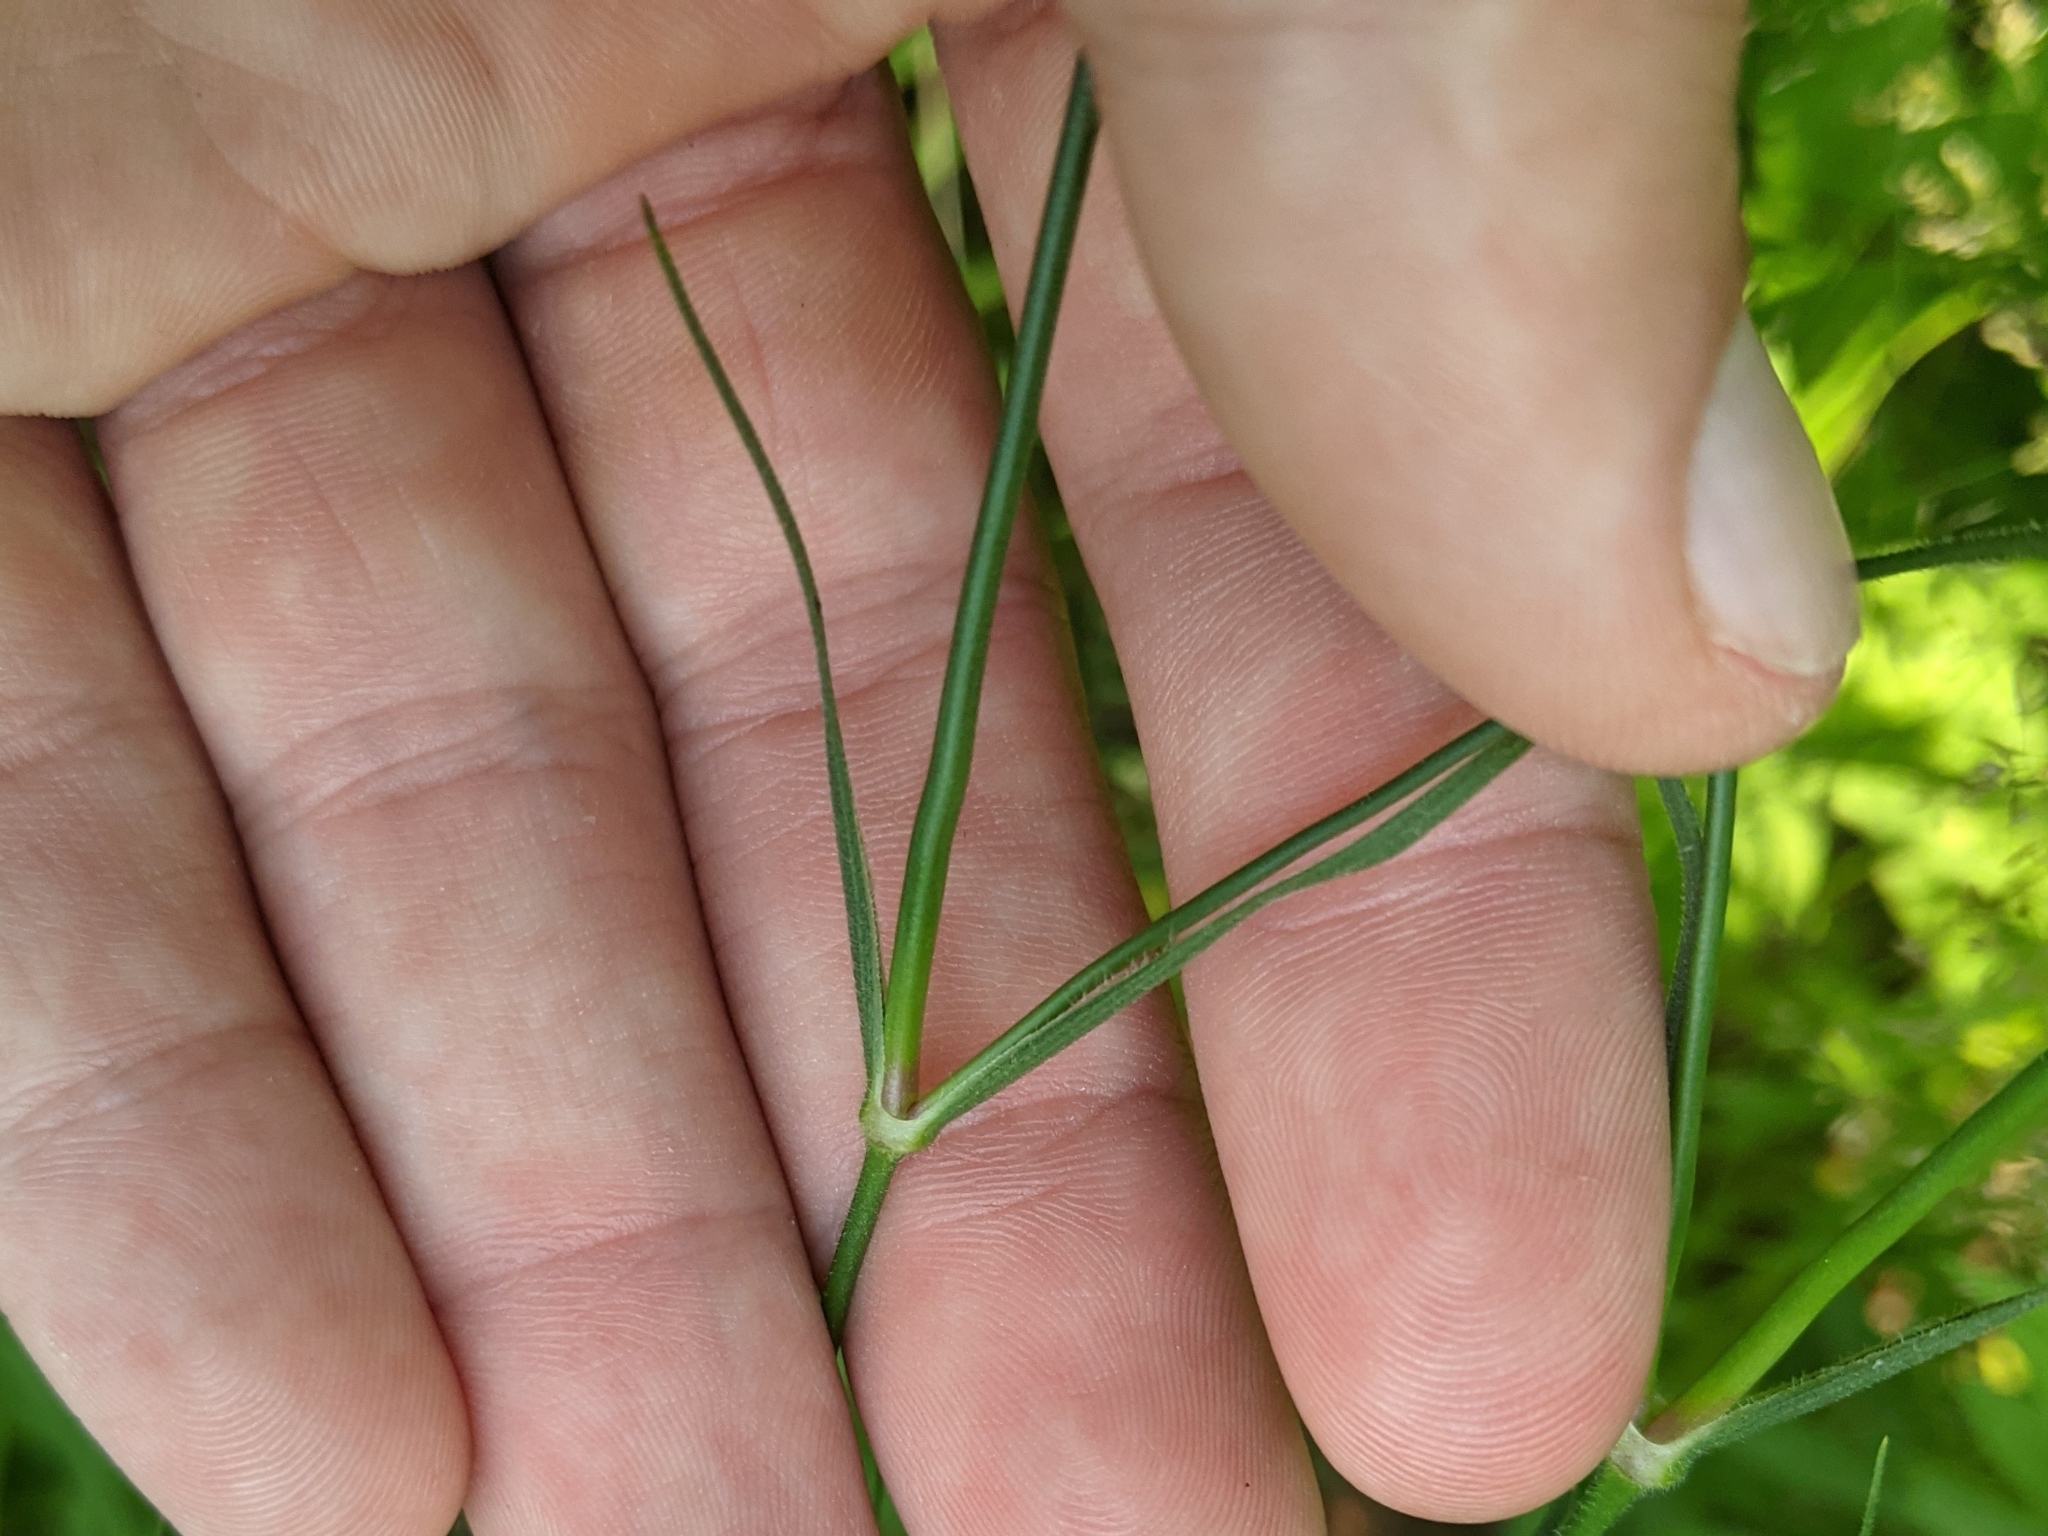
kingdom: Plantae
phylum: Tracheophyta
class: Magnoliopsida
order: Caryophyllales
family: Caryophyllaceae
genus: Dianthus
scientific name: Dianthus armeria
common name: Deptford pink
